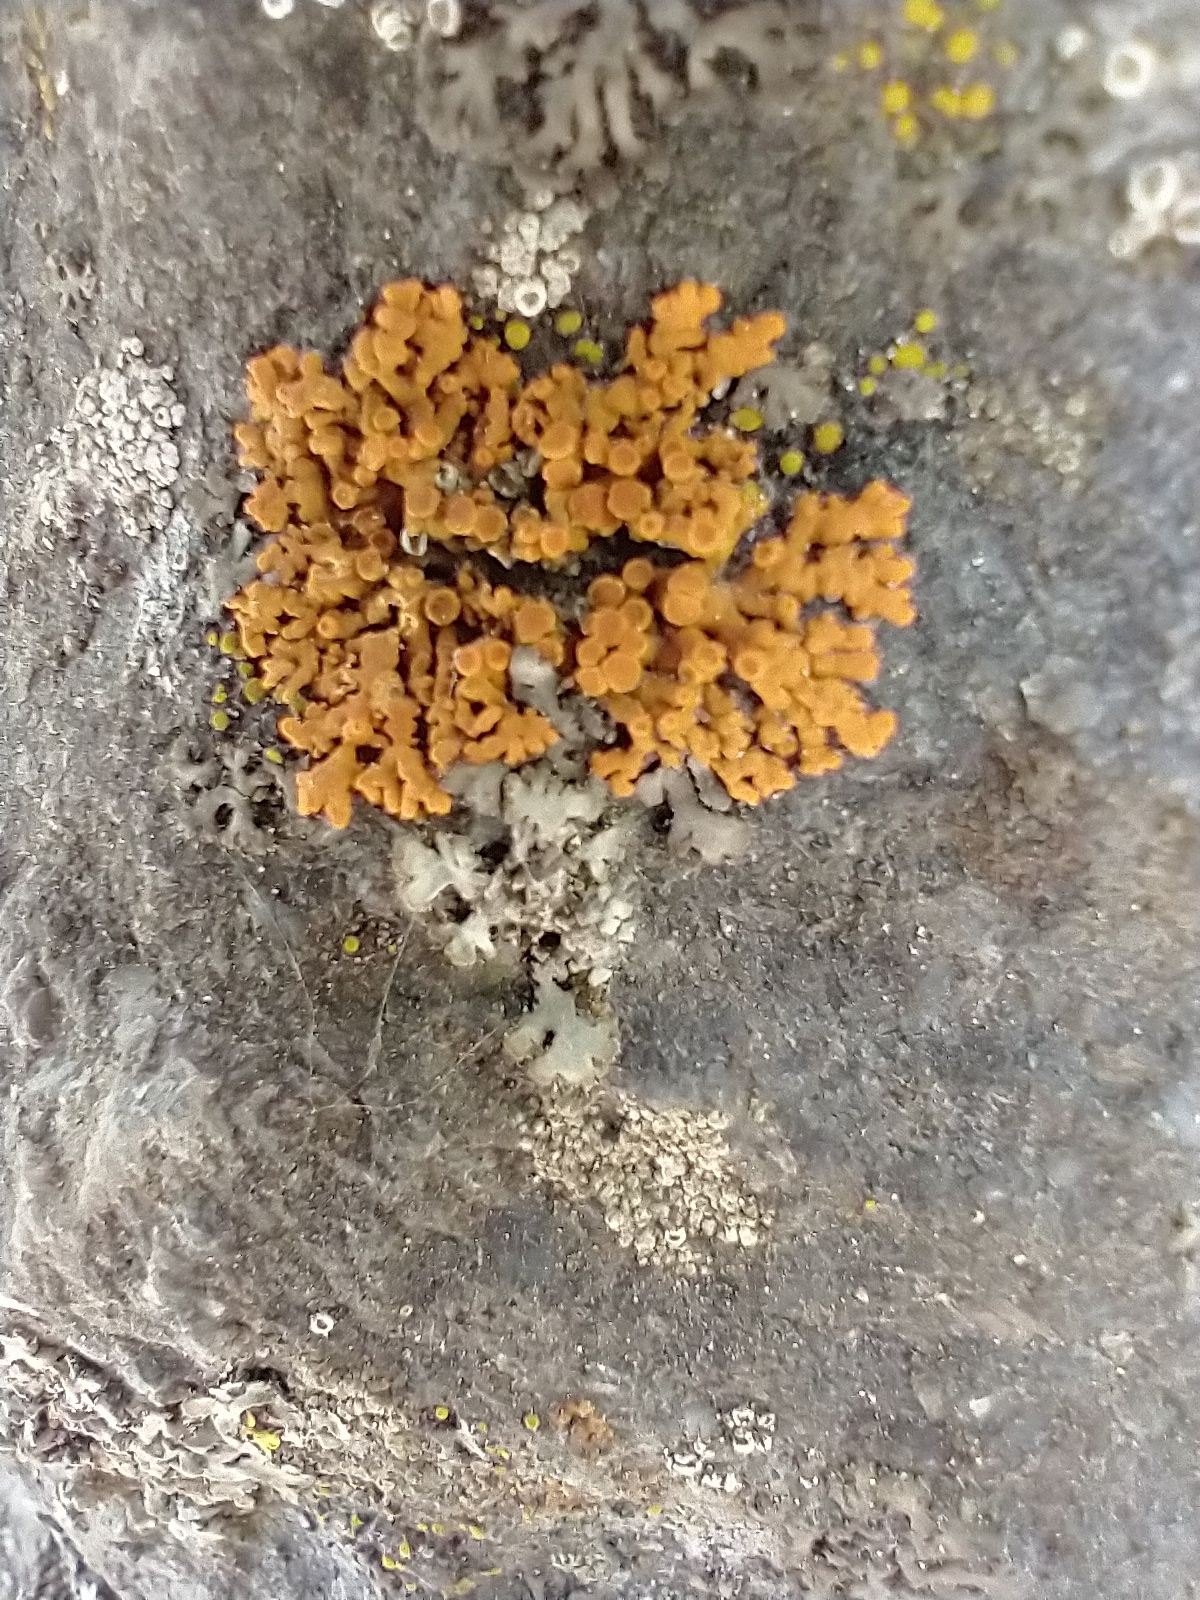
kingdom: Fungi
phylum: Ascomycota
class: Lecanoromycetes
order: Teloschistales
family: Teloschistaceae
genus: Xanthoria
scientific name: Xanthoria elegans
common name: Elegant sunburst lichen
